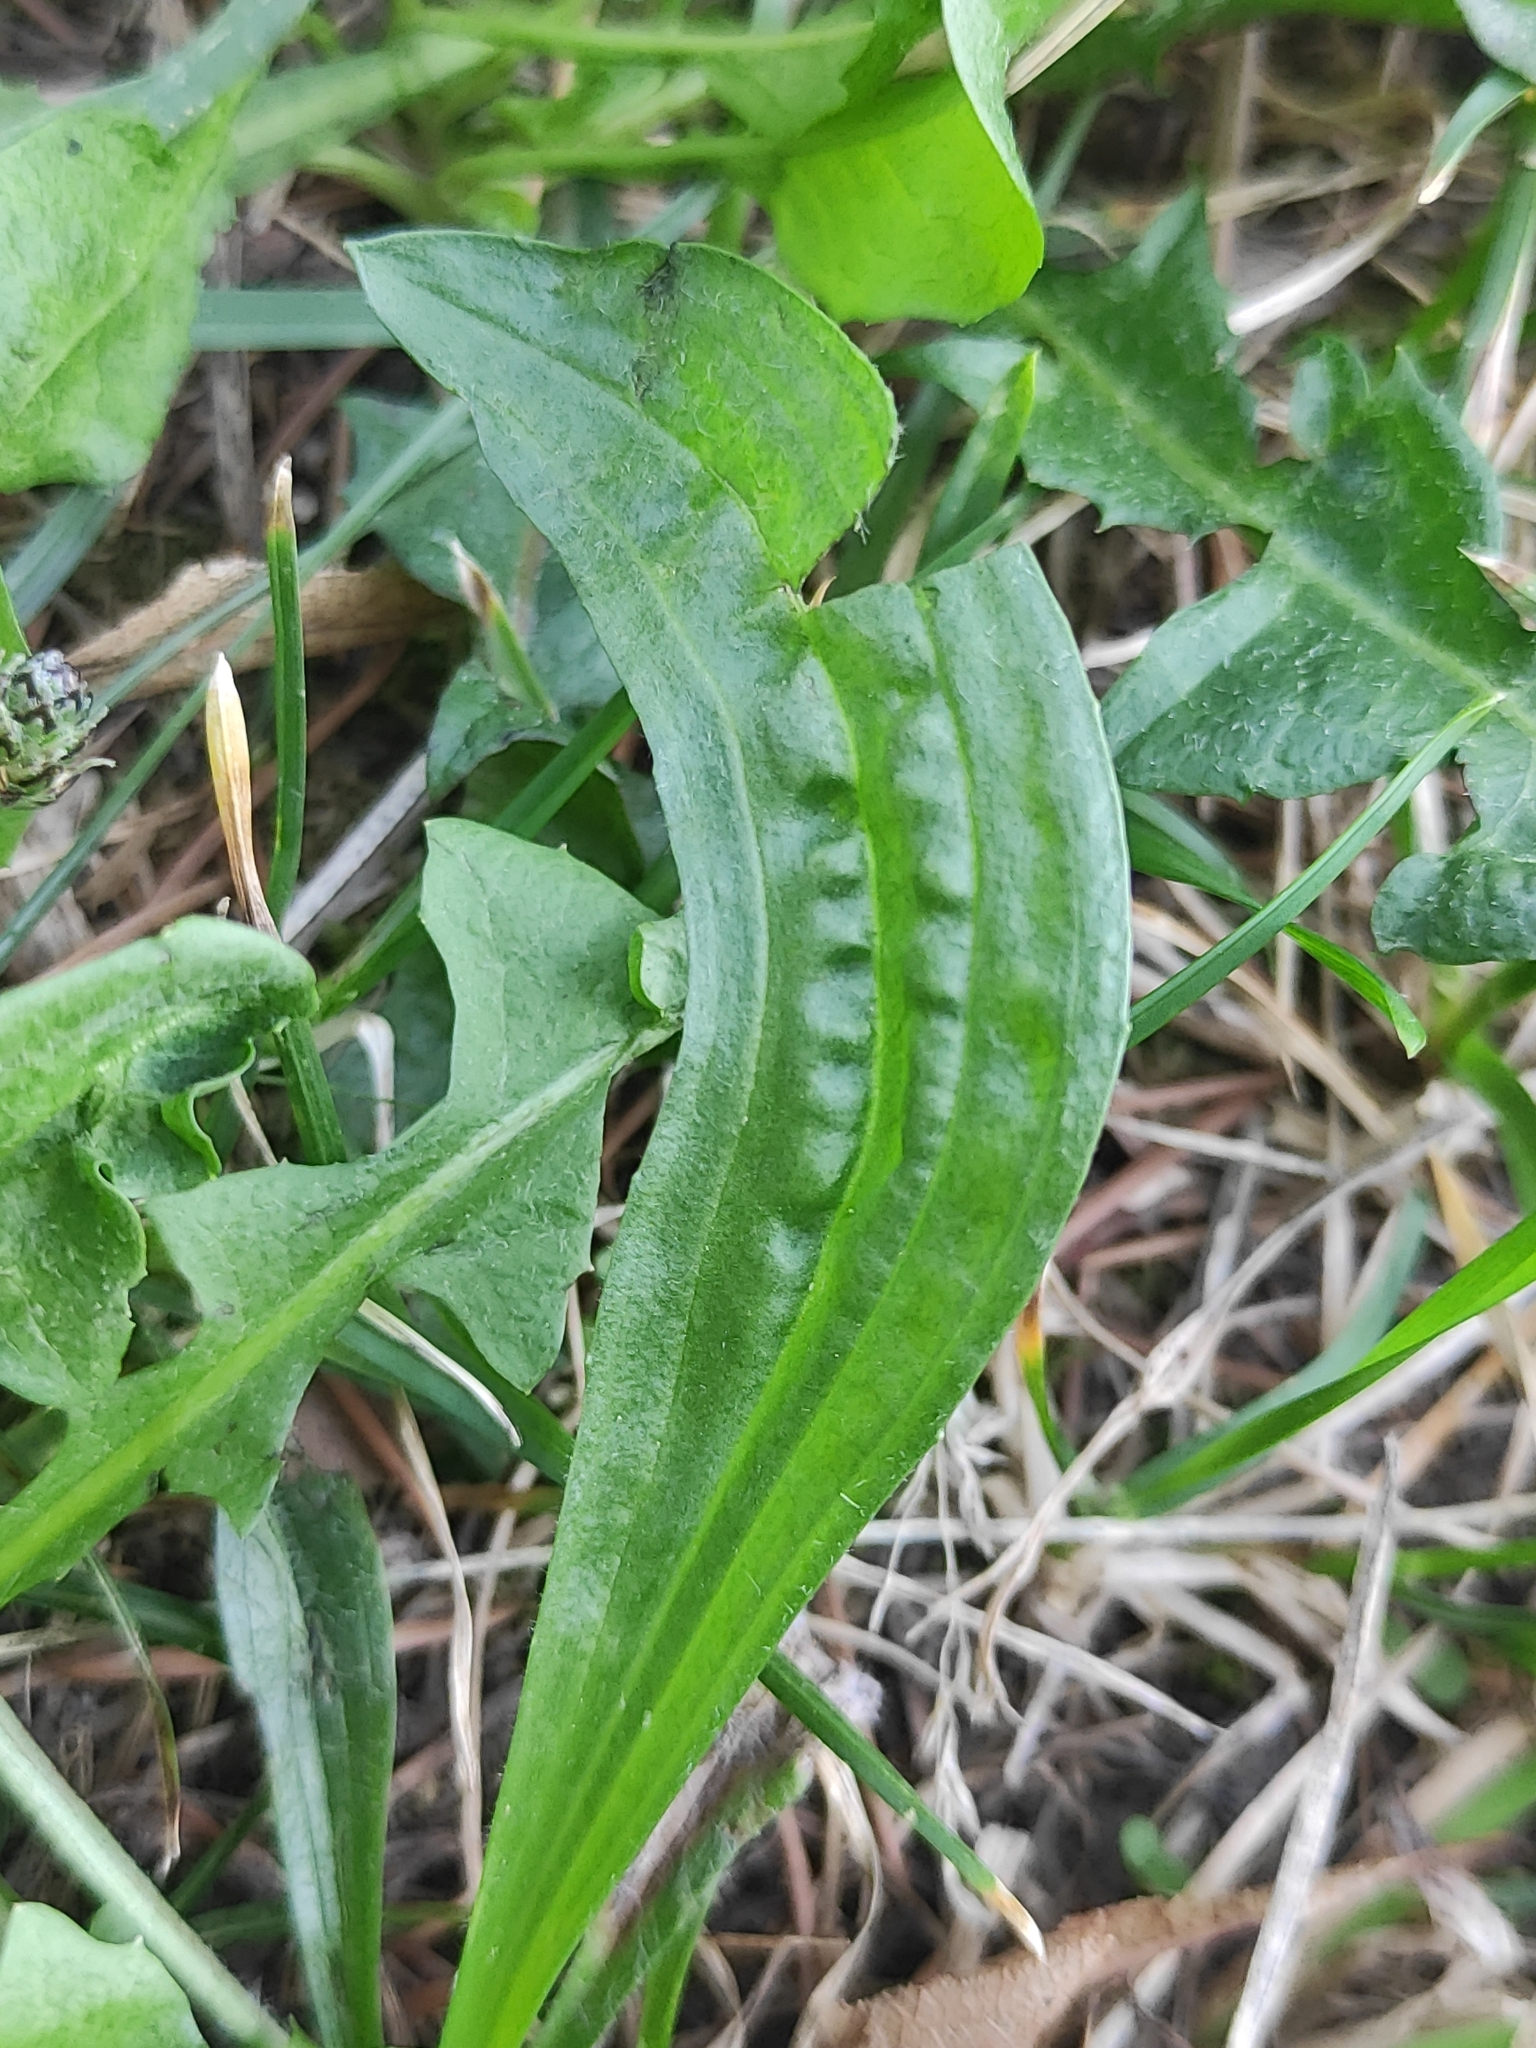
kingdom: Plantae
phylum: Tracheophyta
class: Magnoliopsida
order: Lamiales
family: Plantaginaceae
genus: Plantago
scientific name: Plantago lanceolata
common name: Ribwort plantain
